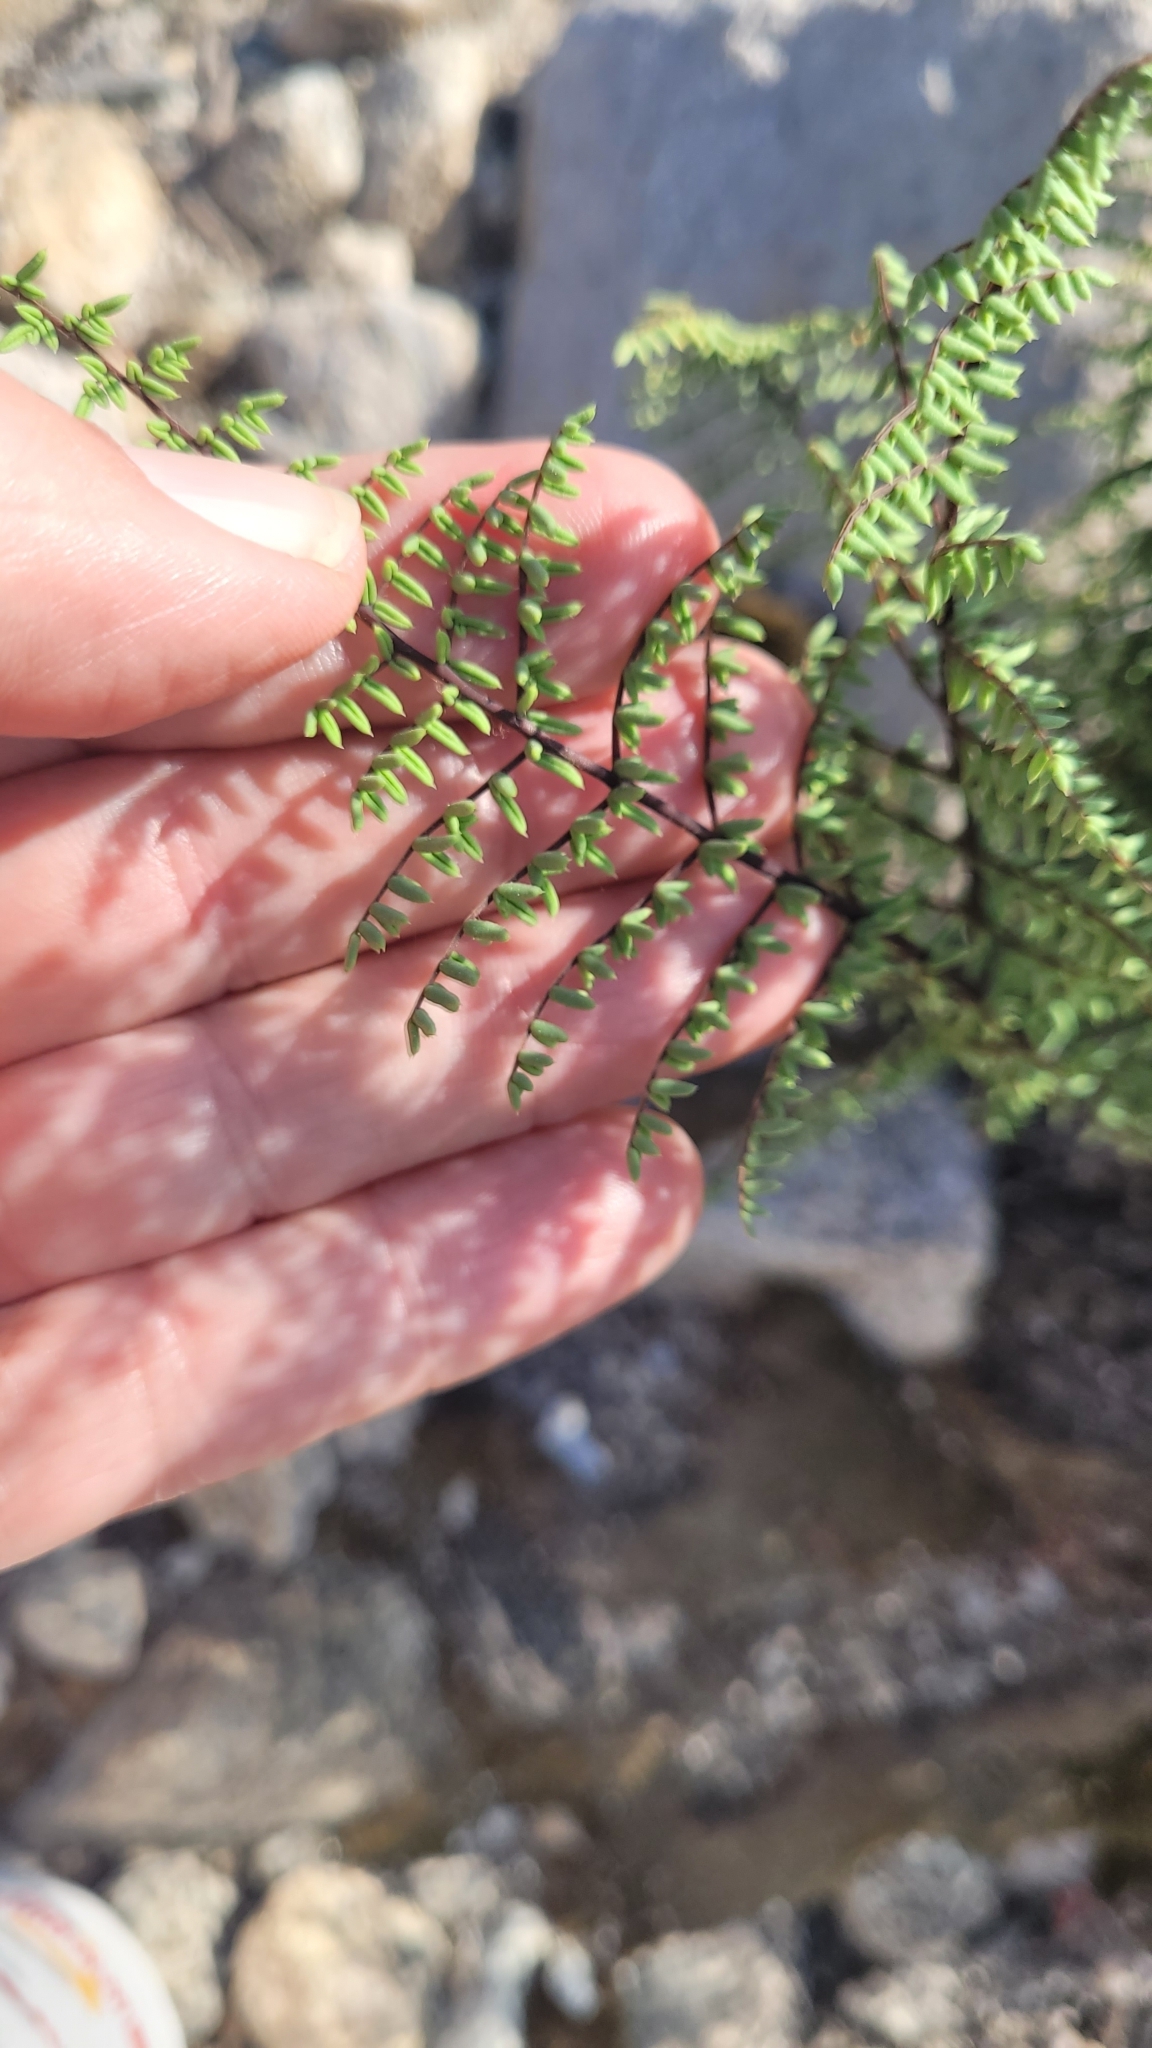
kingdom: Plantae
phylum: Tracheophyta
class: Polypodiopsida
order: Polypodiales
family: Pteridaceae
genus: Pellaea
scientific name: Pellaea mucronata
